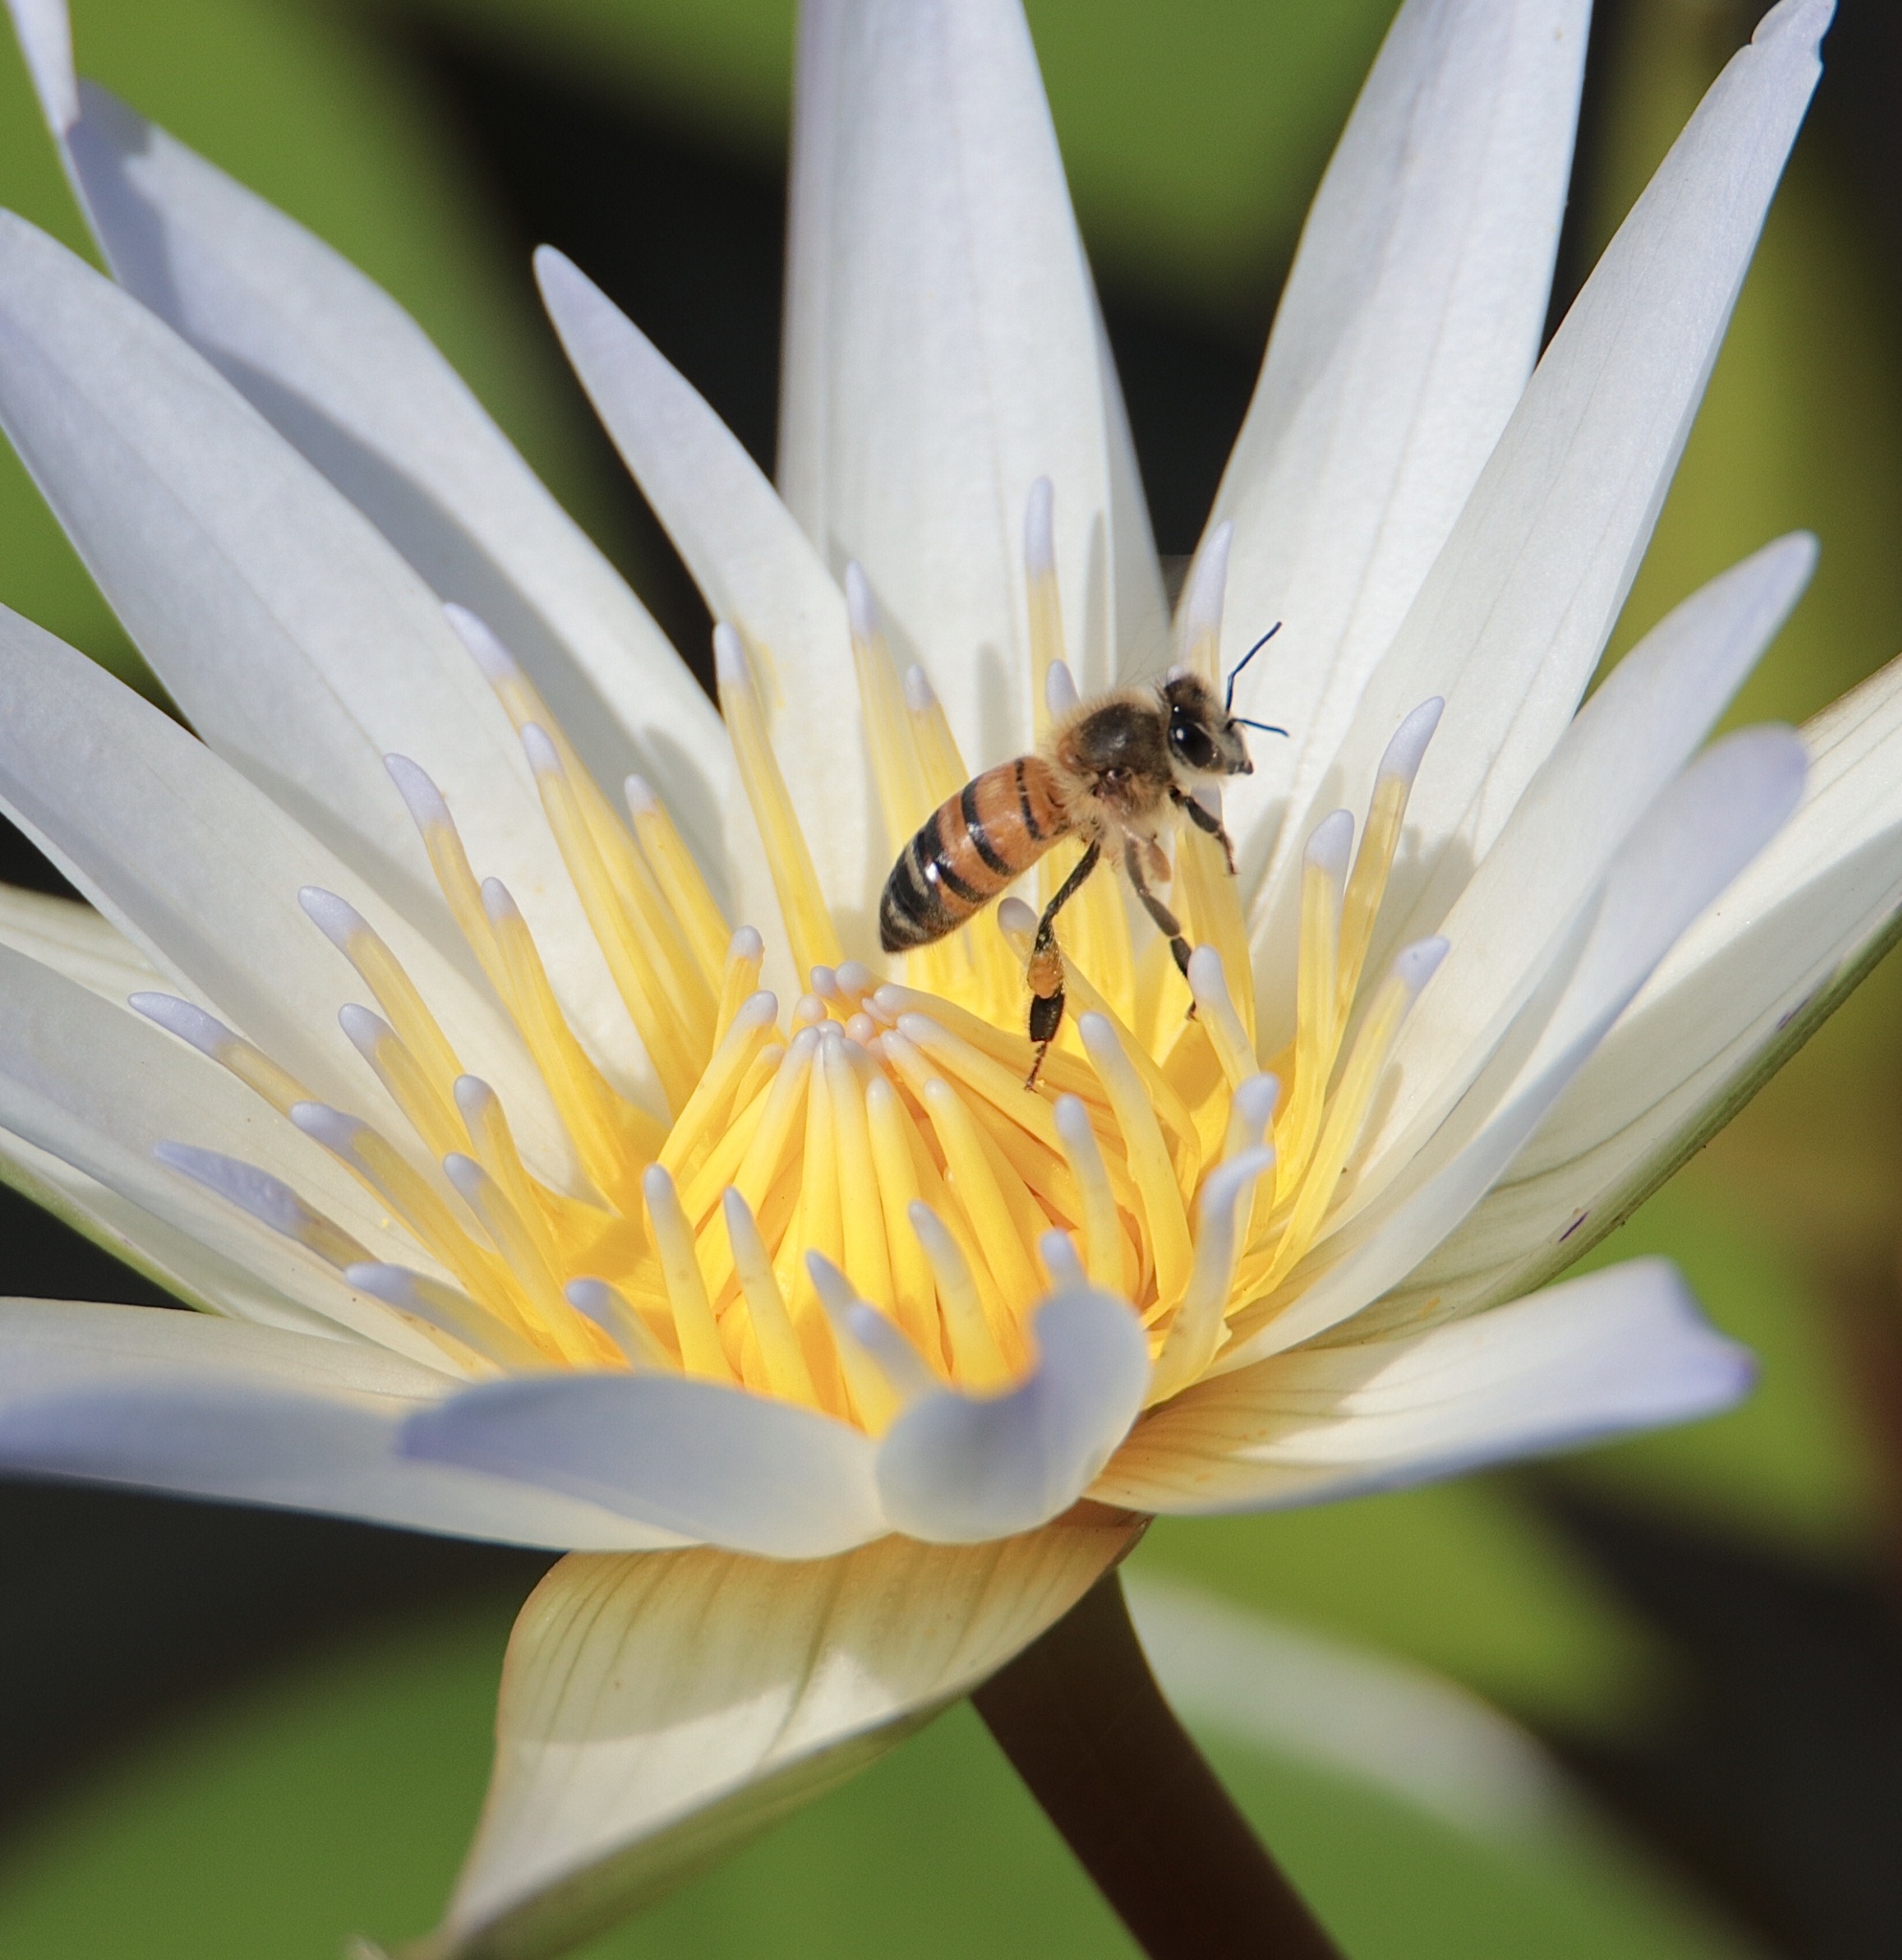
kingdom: Animalia
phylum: Arthropoda
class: Insecta
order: Hymenoptera
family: Apidae
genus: Apis
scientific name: Apis mellifera
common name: Honey bee
